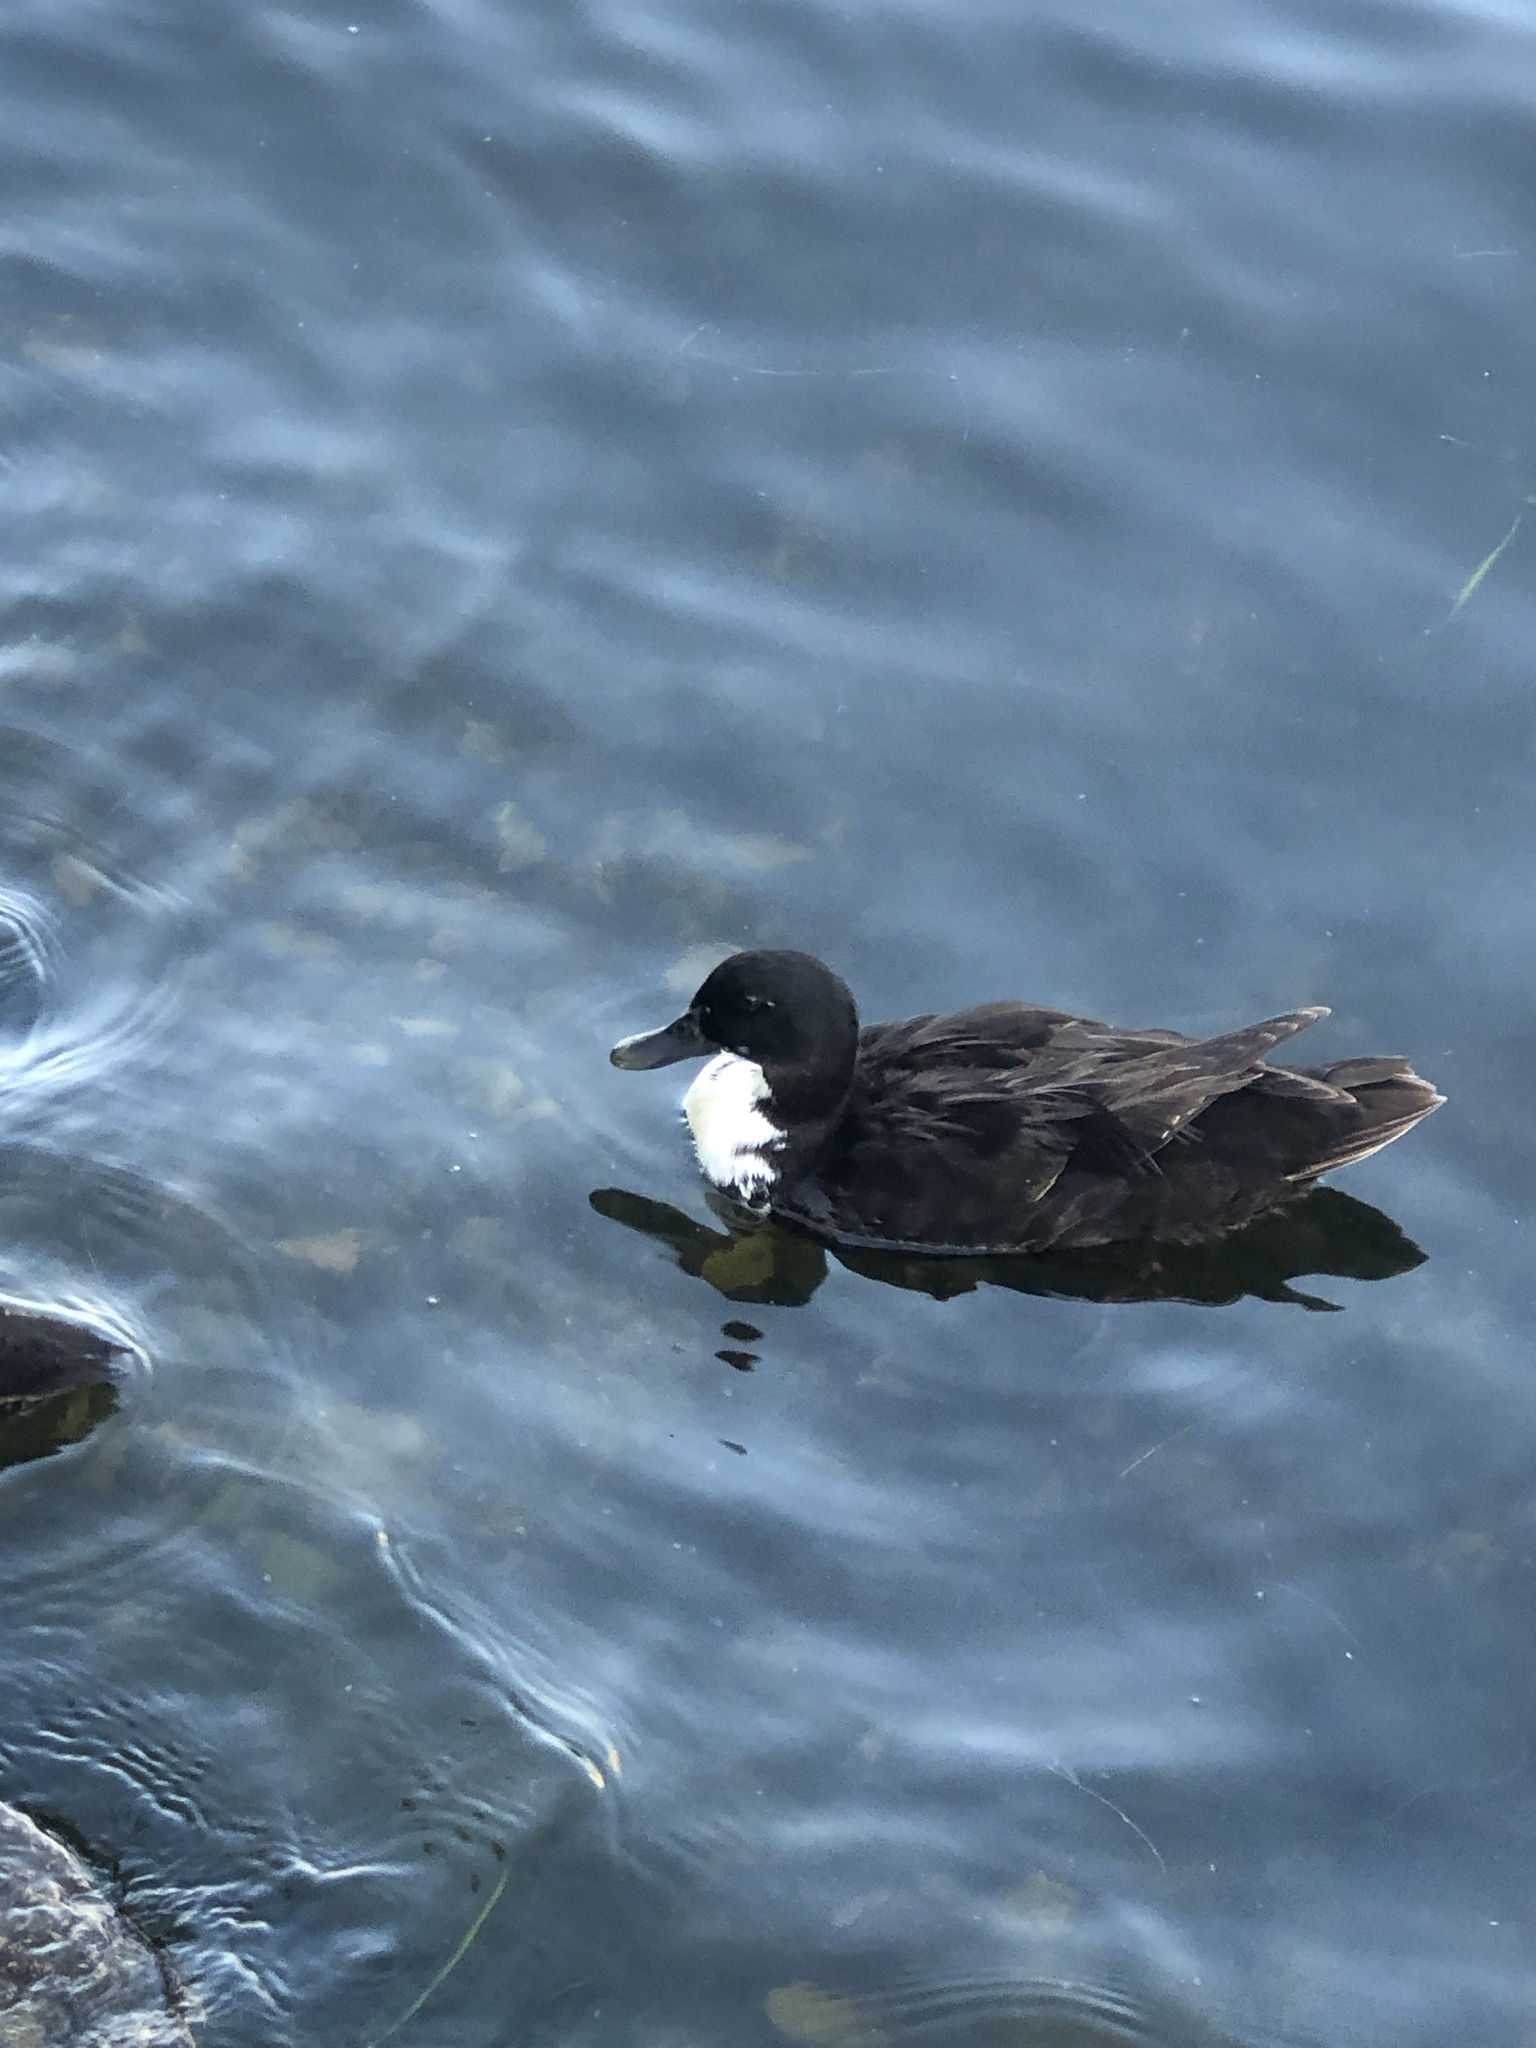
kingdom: Animalia
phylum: Chordata
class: Aves
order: Anseriformes
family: Anatidae
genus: Anas
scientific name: Anas platyrhynchos
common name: Mallard
